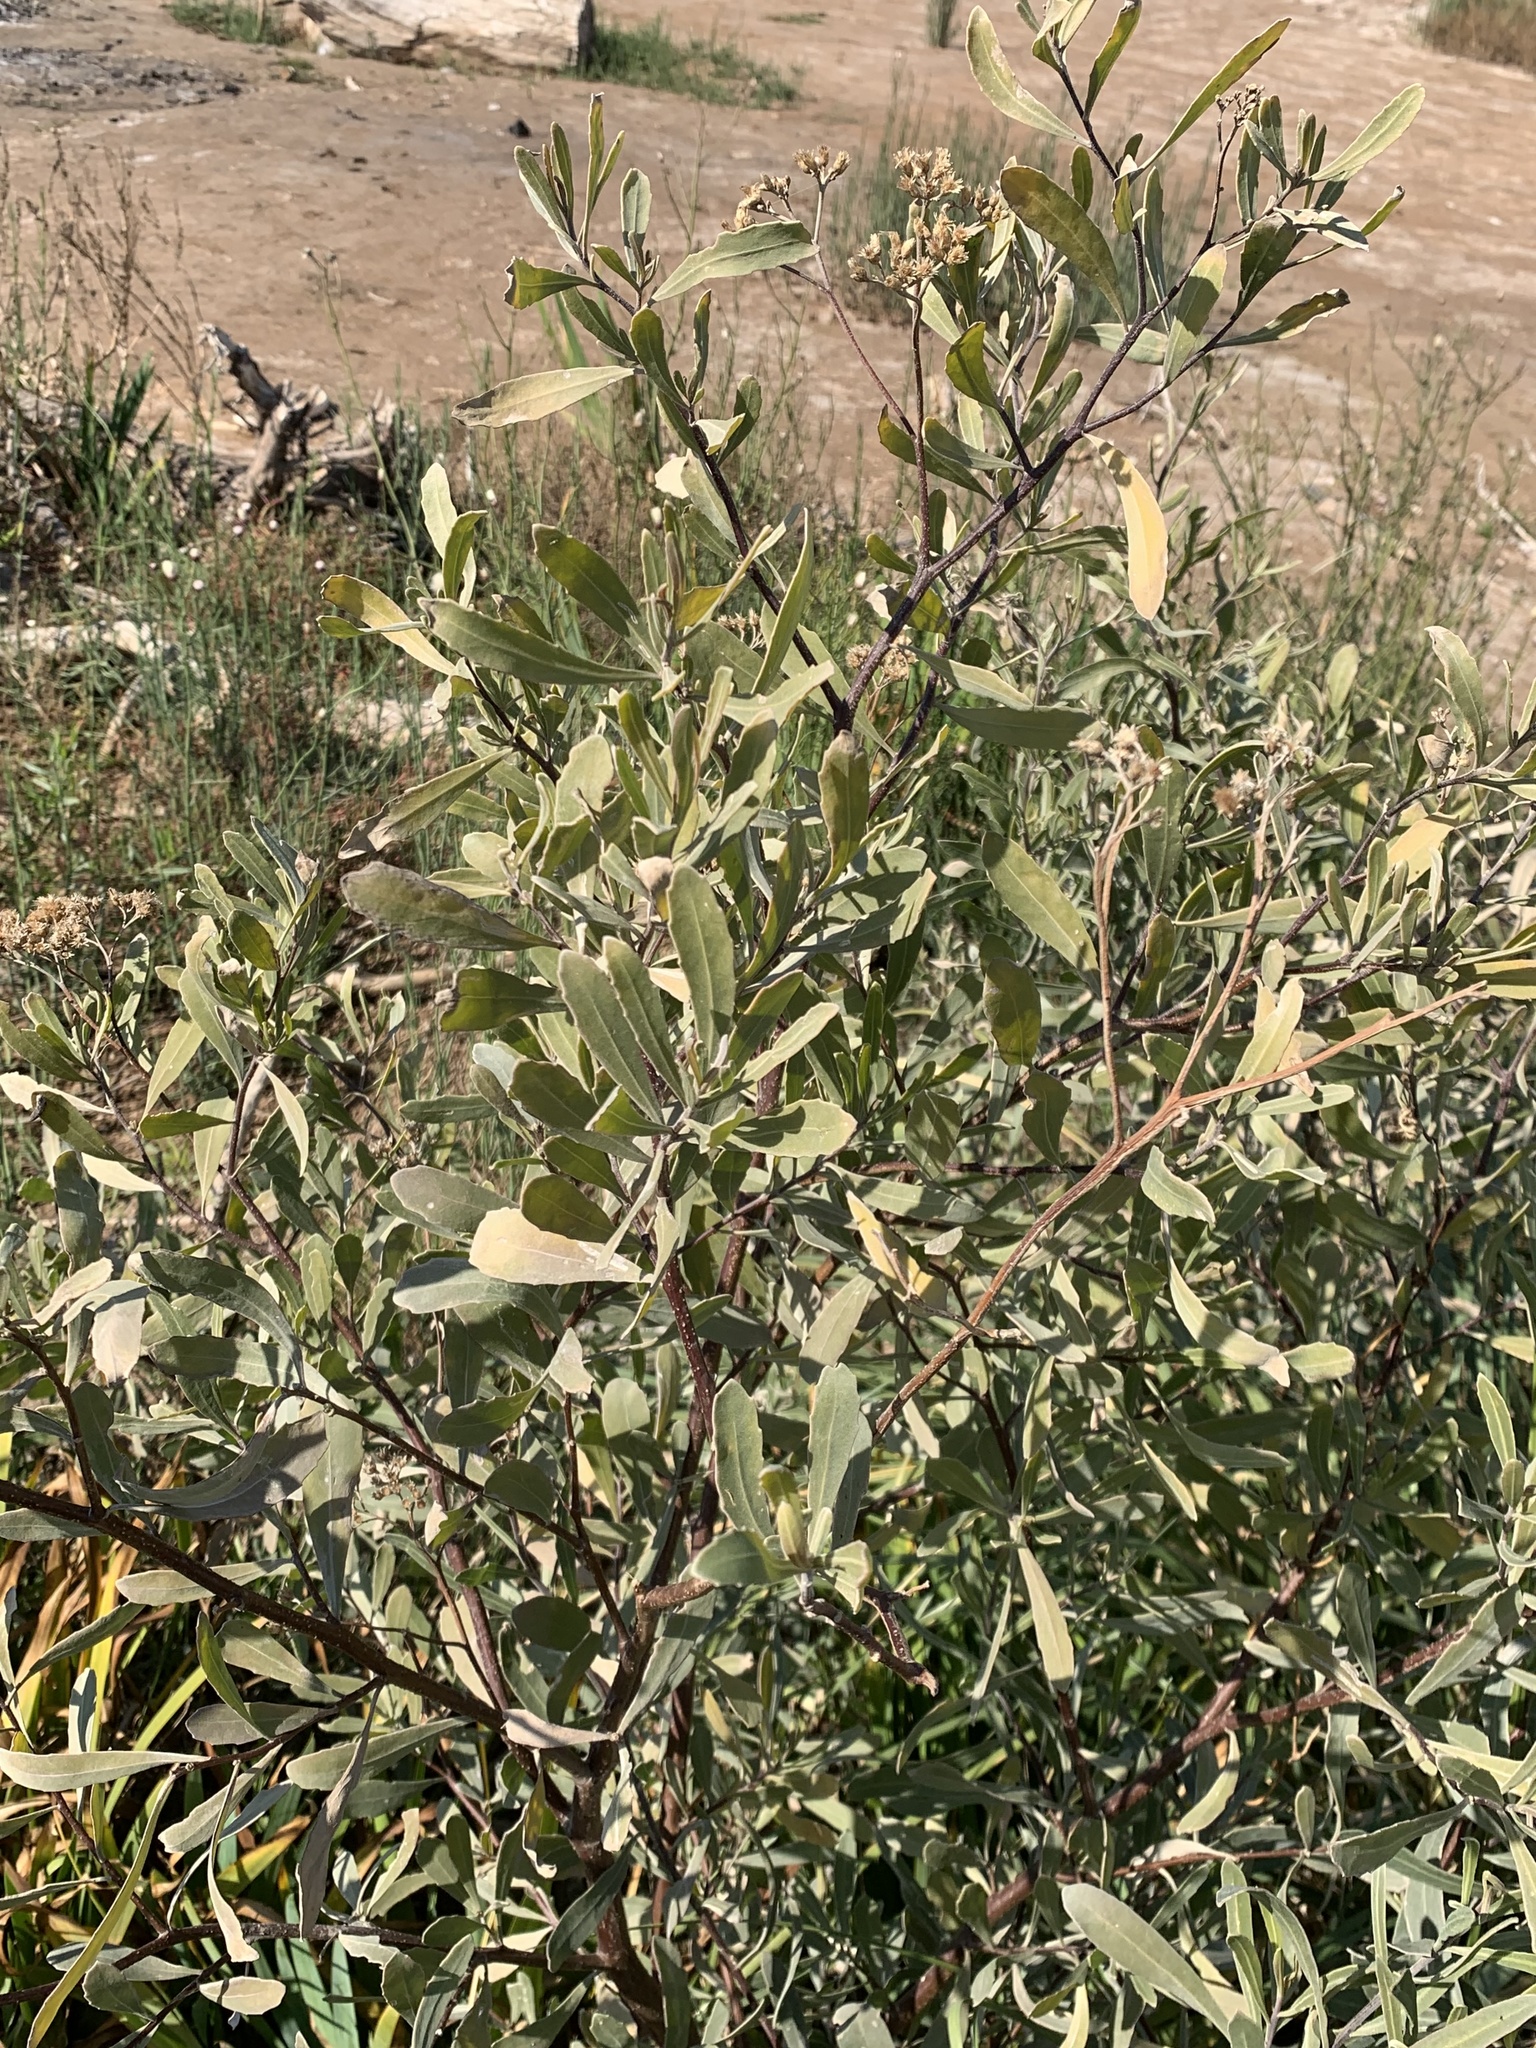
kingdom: Plantae
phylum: Tracheophyta
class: Magnoliopsida
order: Asterales
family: Asteraceae
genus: Tessaria
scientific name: Tessaria integrifolia
